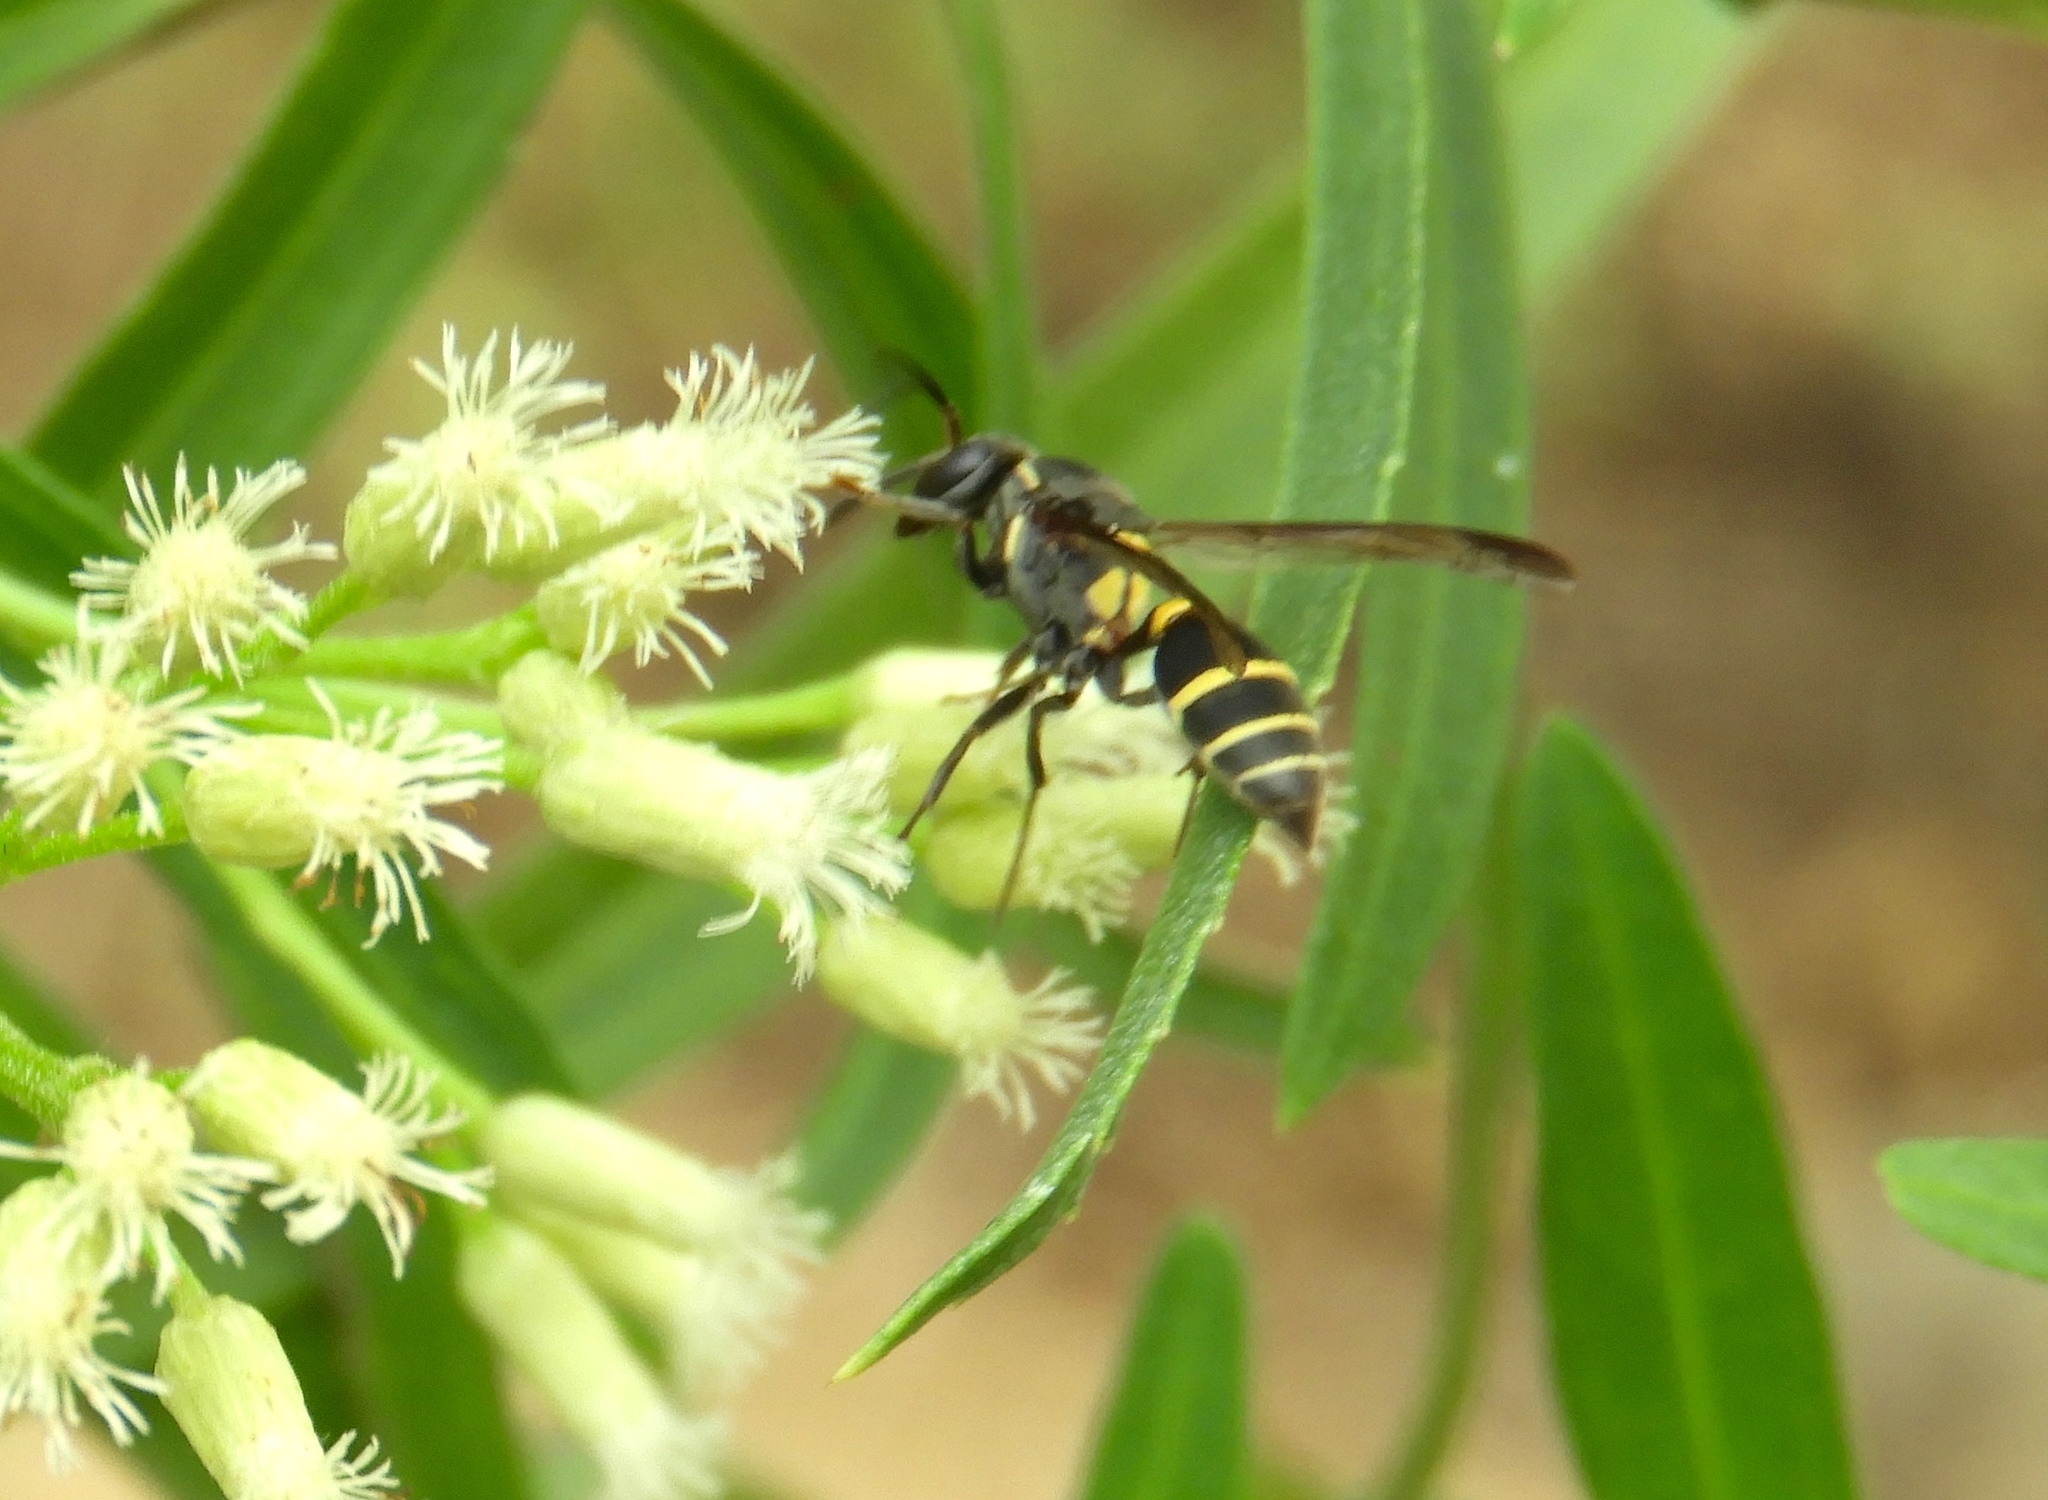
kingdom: Animalia
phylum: Arthropoda
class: Insecta
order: Hymenoptera
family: Vespidae
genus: Myrapetra
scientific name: Myrapetra
